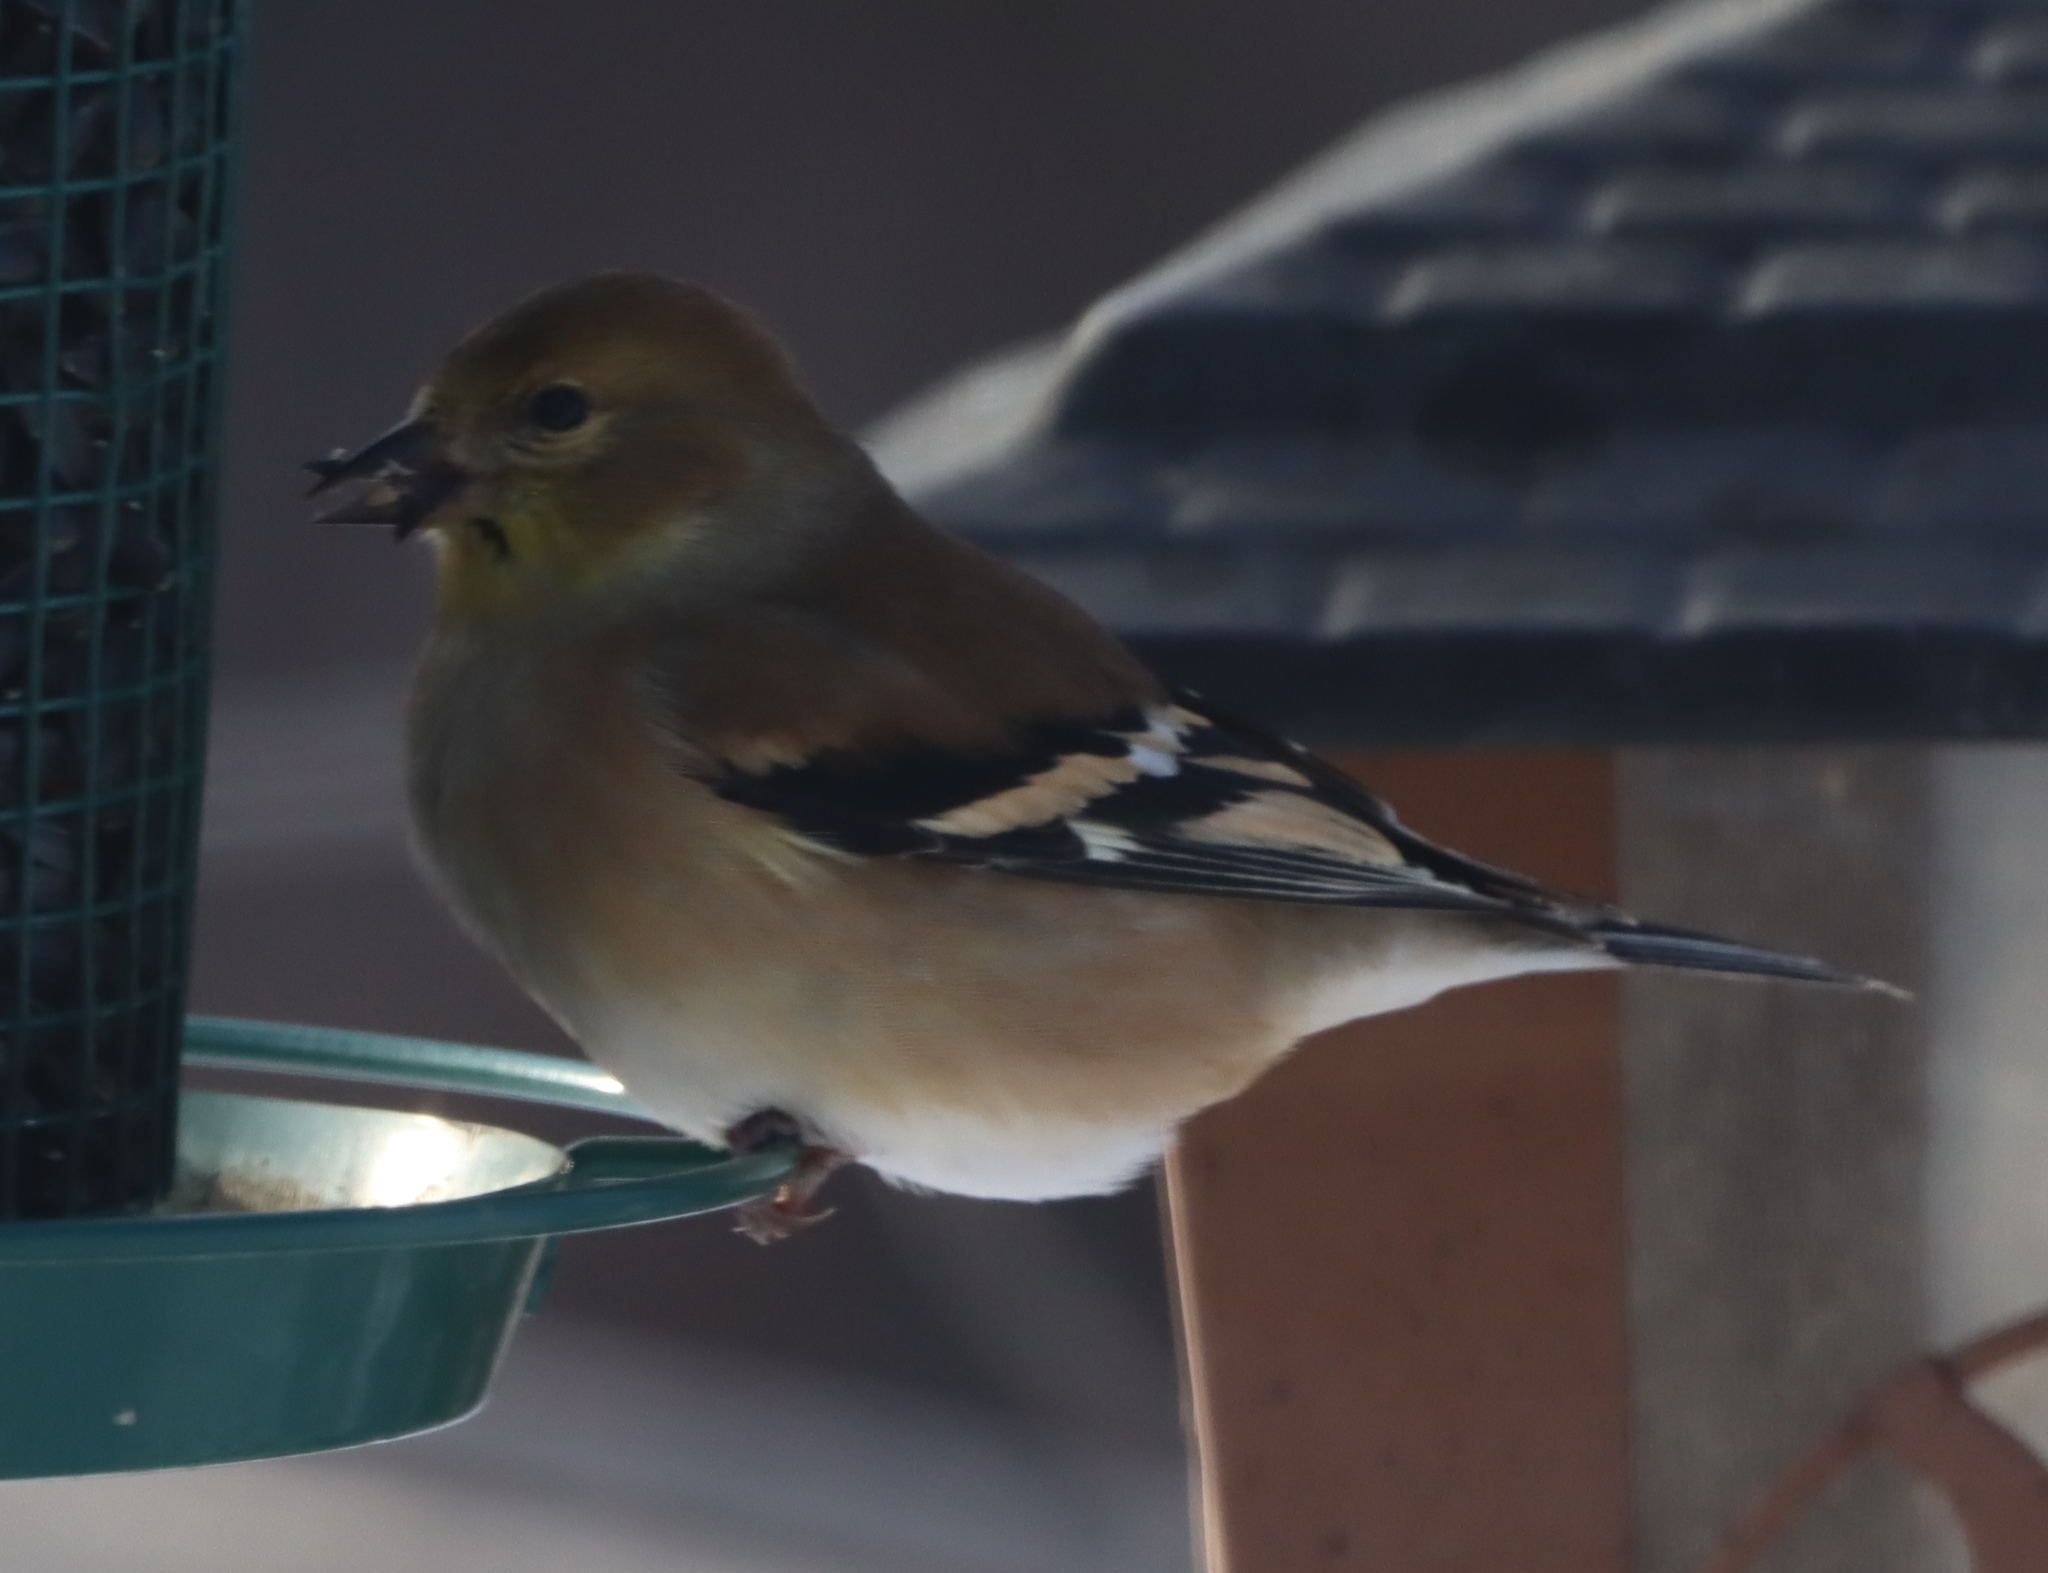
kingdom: Animalia
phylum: Chordata
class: Aves
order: Passeriformes
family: Fringillidae
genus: Spinus
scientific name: Spinus tristis
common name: American goldfinch
